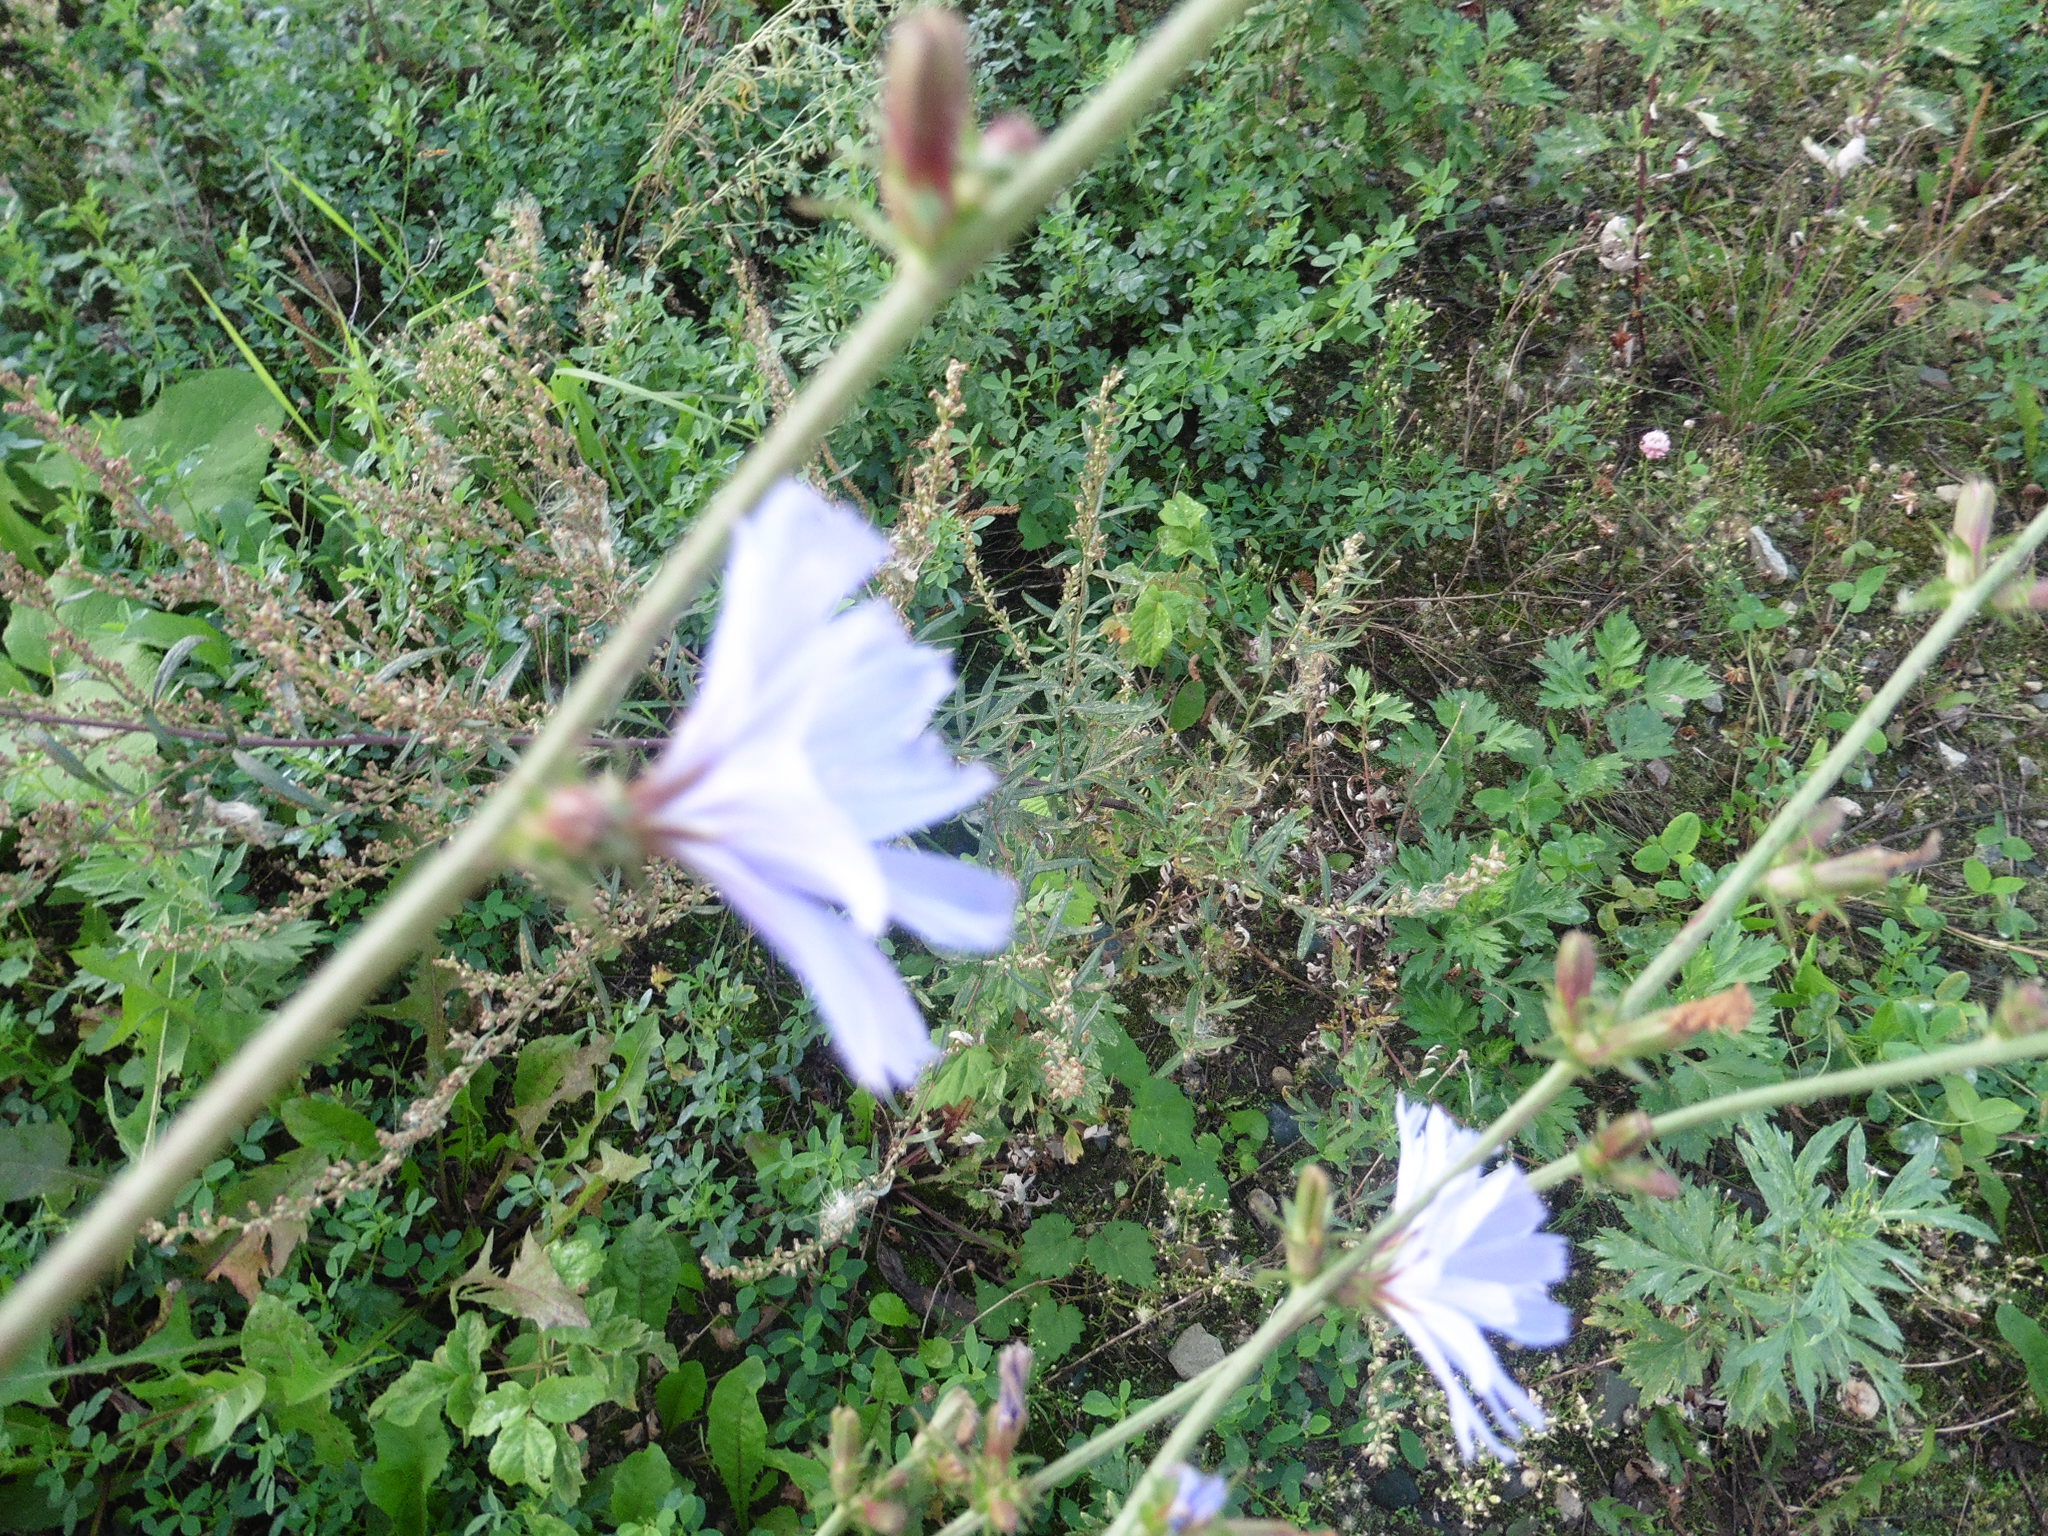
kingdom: Plantae
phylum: Tracheophyta
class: Magnoliopsida
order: Asterales
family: Asteraceae
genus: Cichorium
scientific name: Cichorium intybus
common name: Chicory
